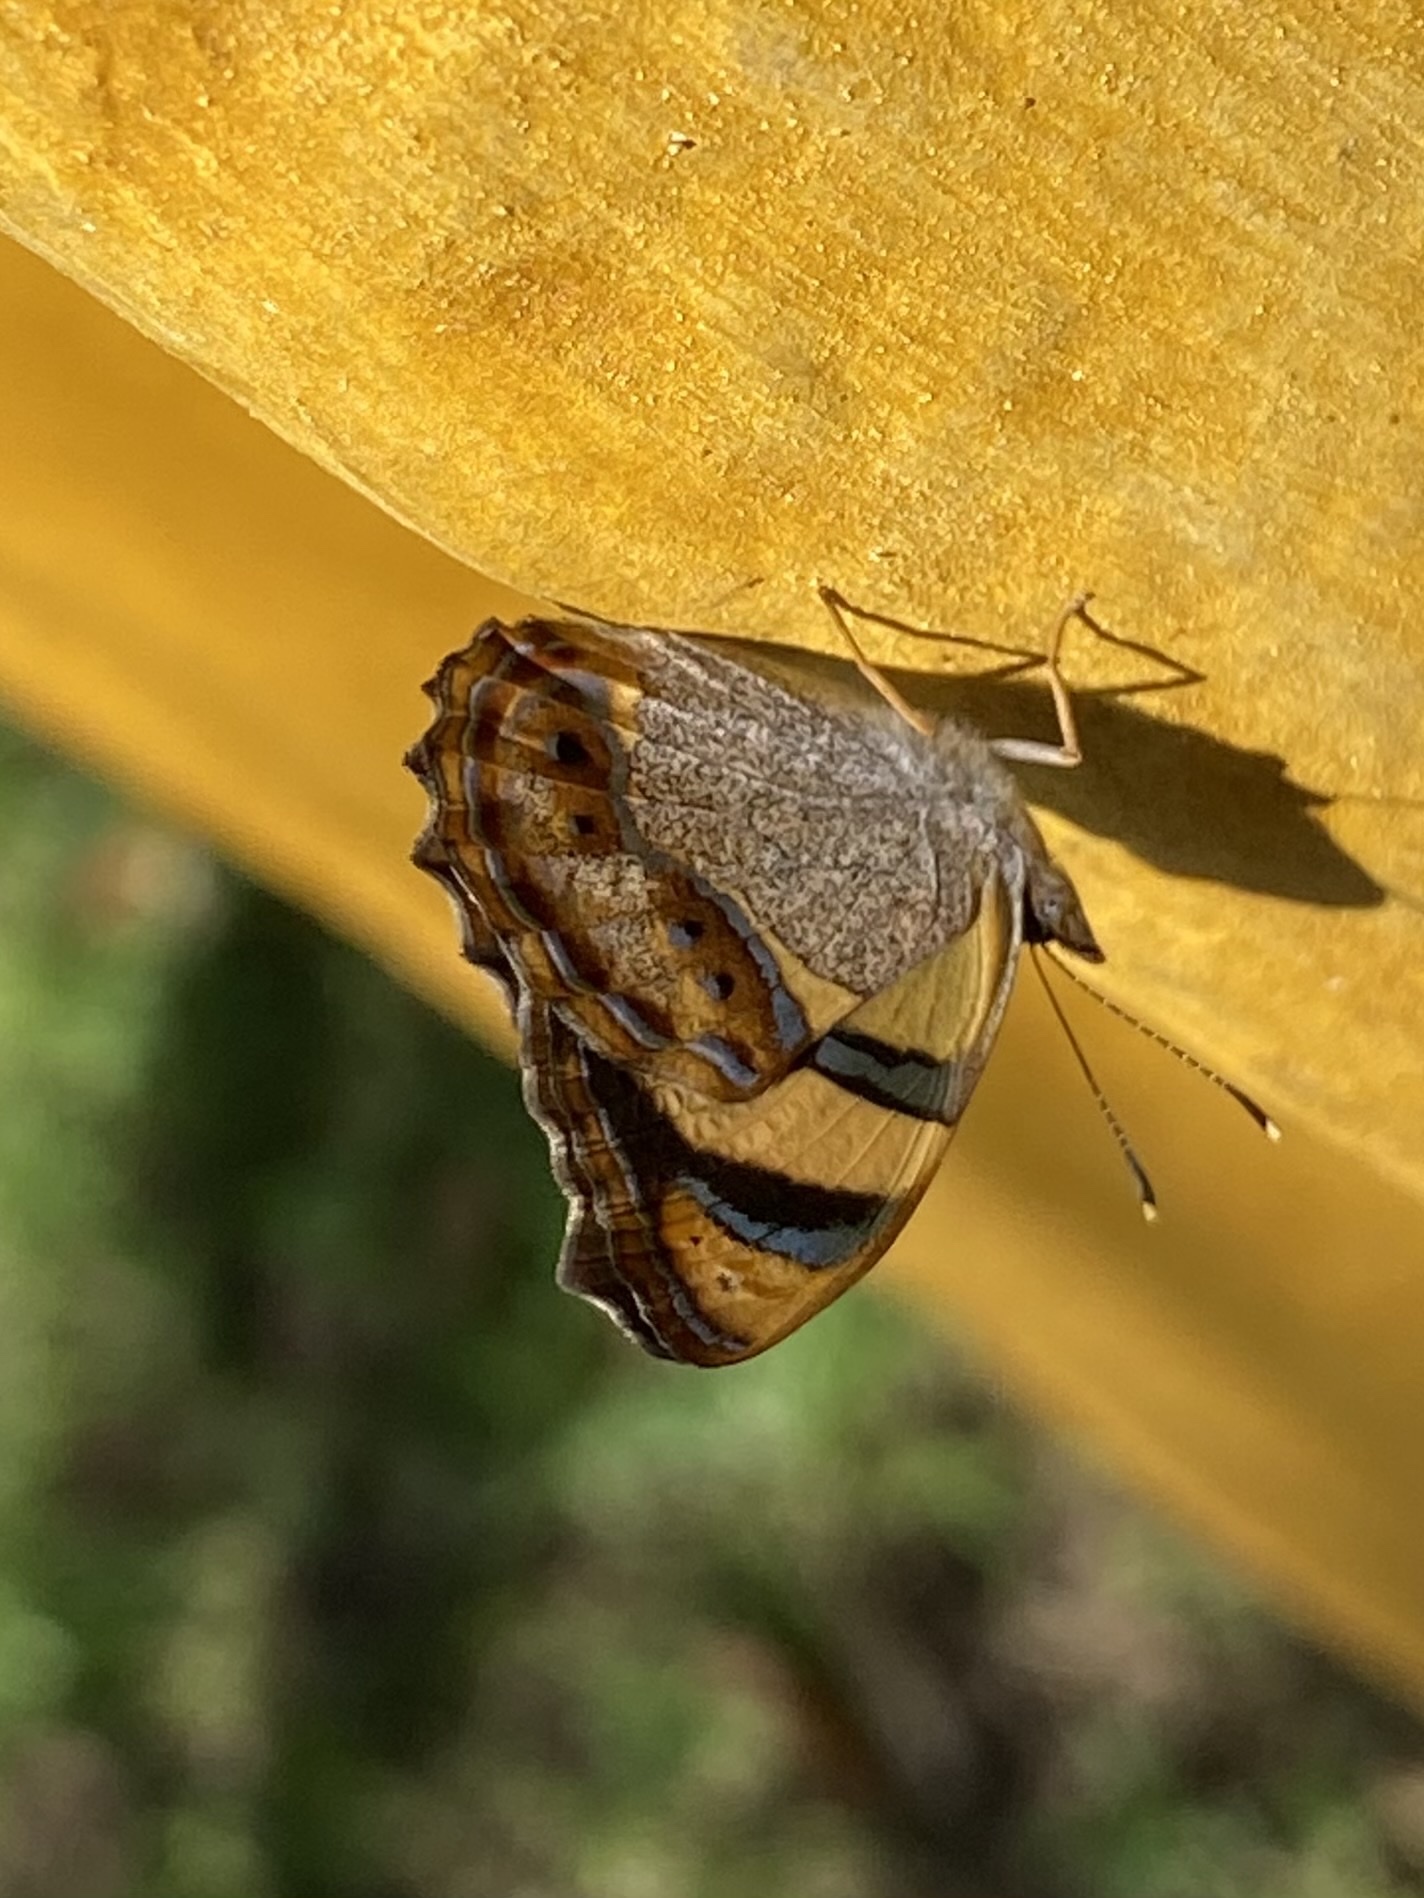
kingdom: Animalia
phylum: Arthropoda
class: Insecta
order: Lepidoptera
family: Nymphalidae
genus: Bolboneura
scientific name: Bolboneura sylphis
